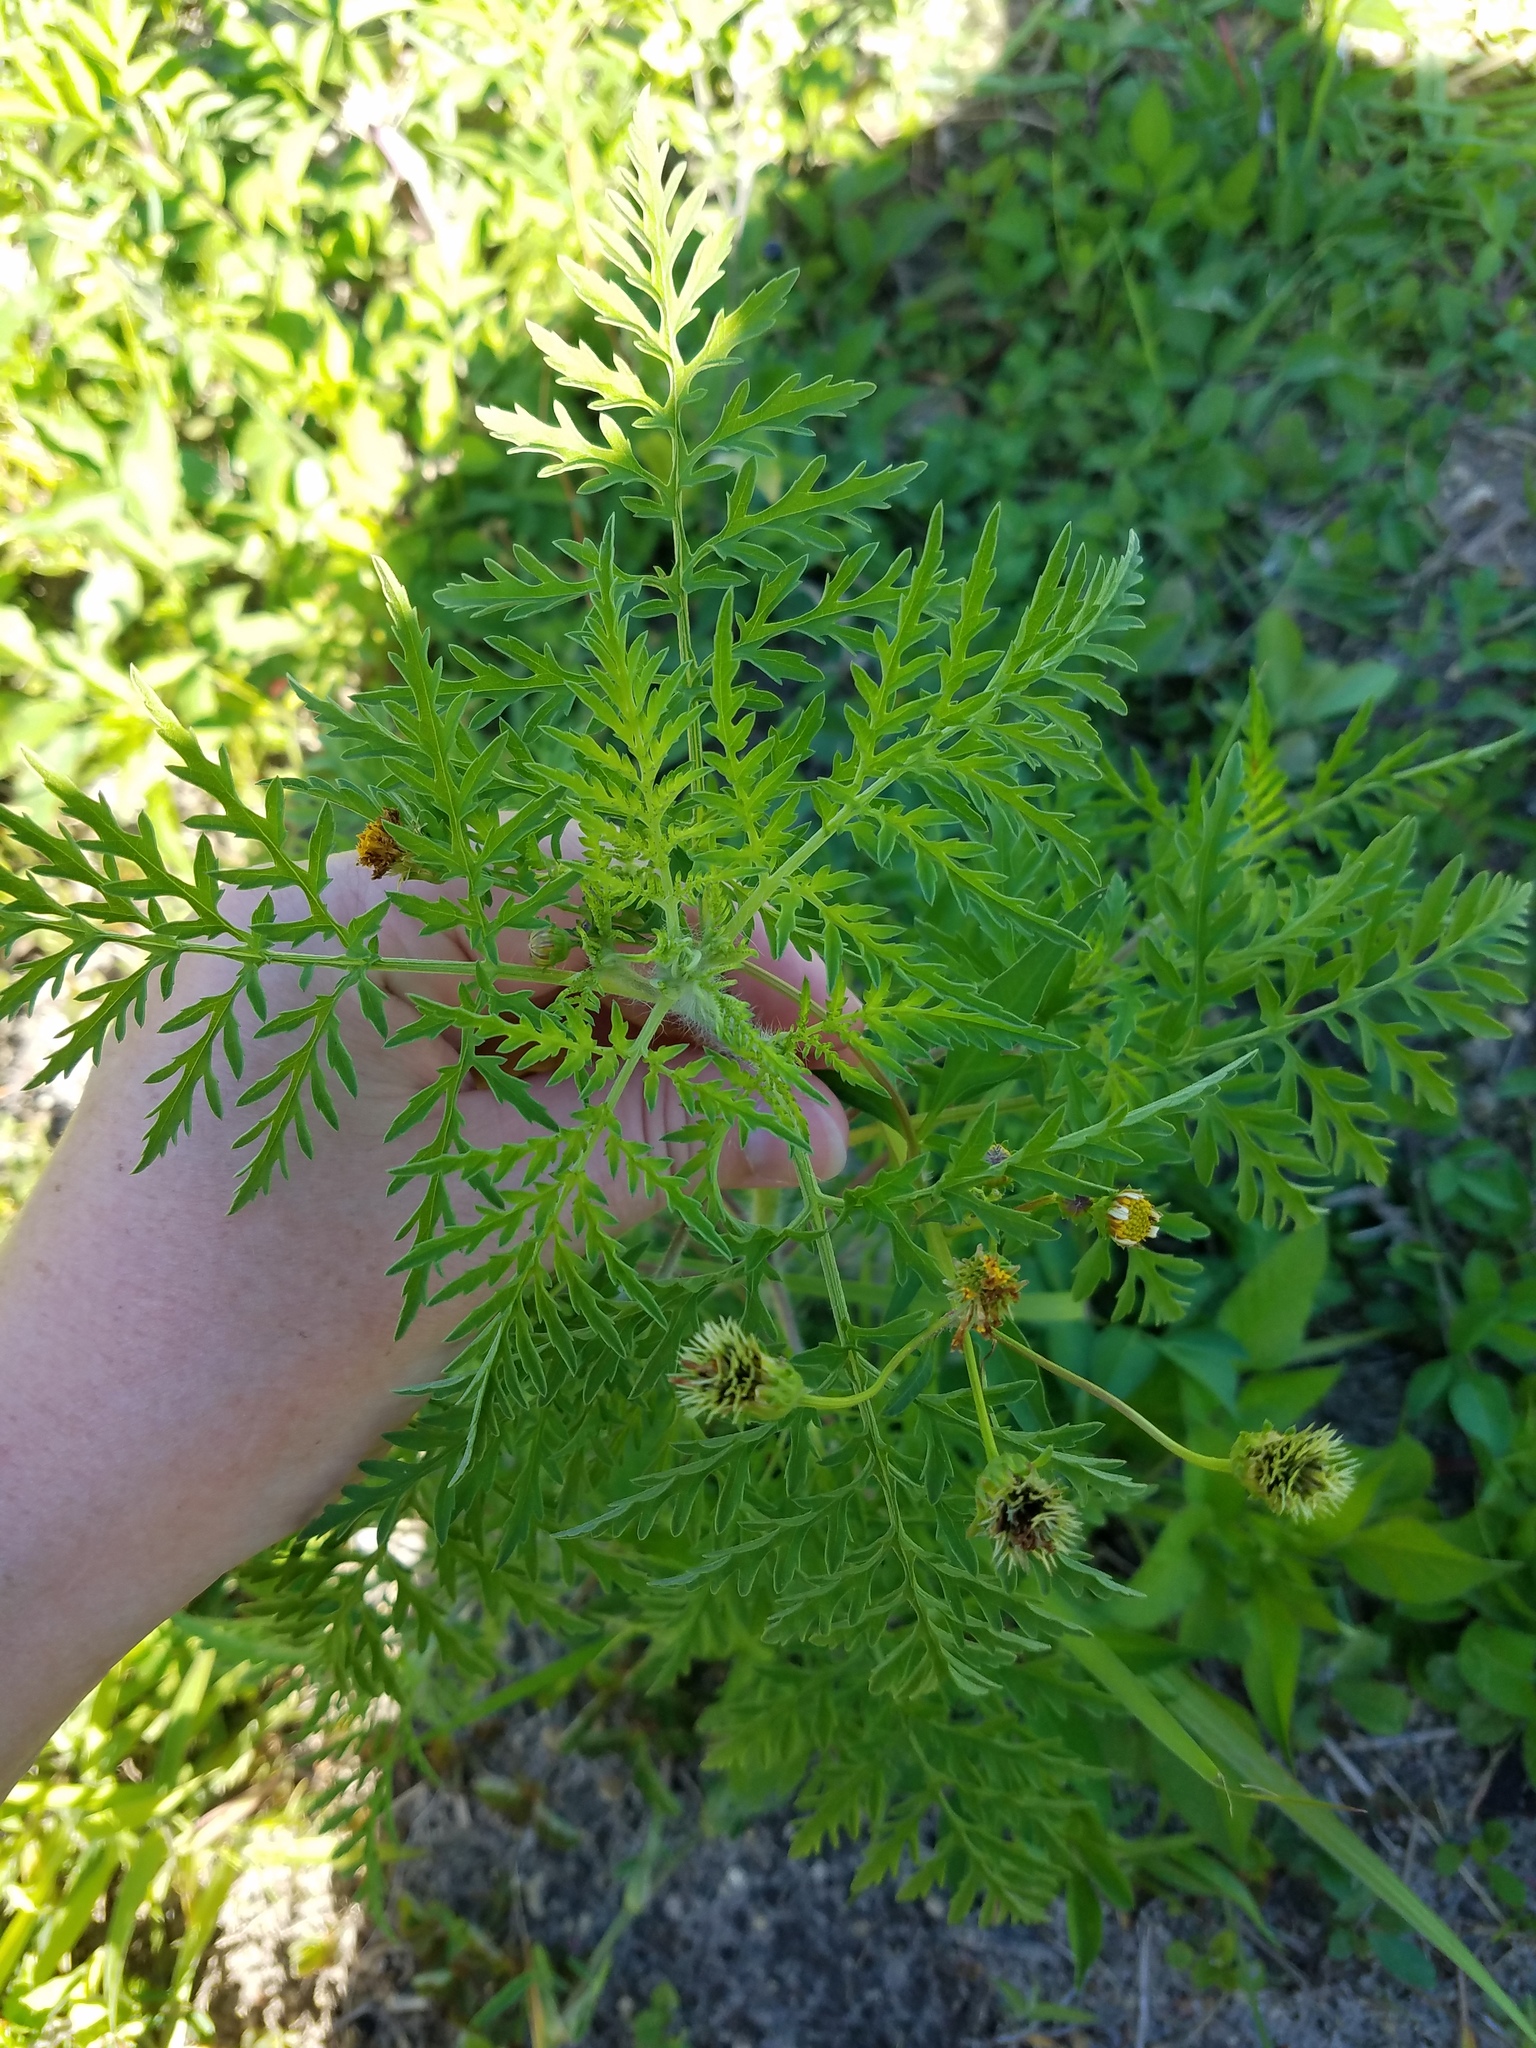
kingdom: Plantae
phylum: Tracheophyta
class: Magnoliopsida
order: Asterales
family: Asteraceae
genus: Ambrosia
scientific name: Ambrosia artemisiifolia
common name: Annual ragweed
